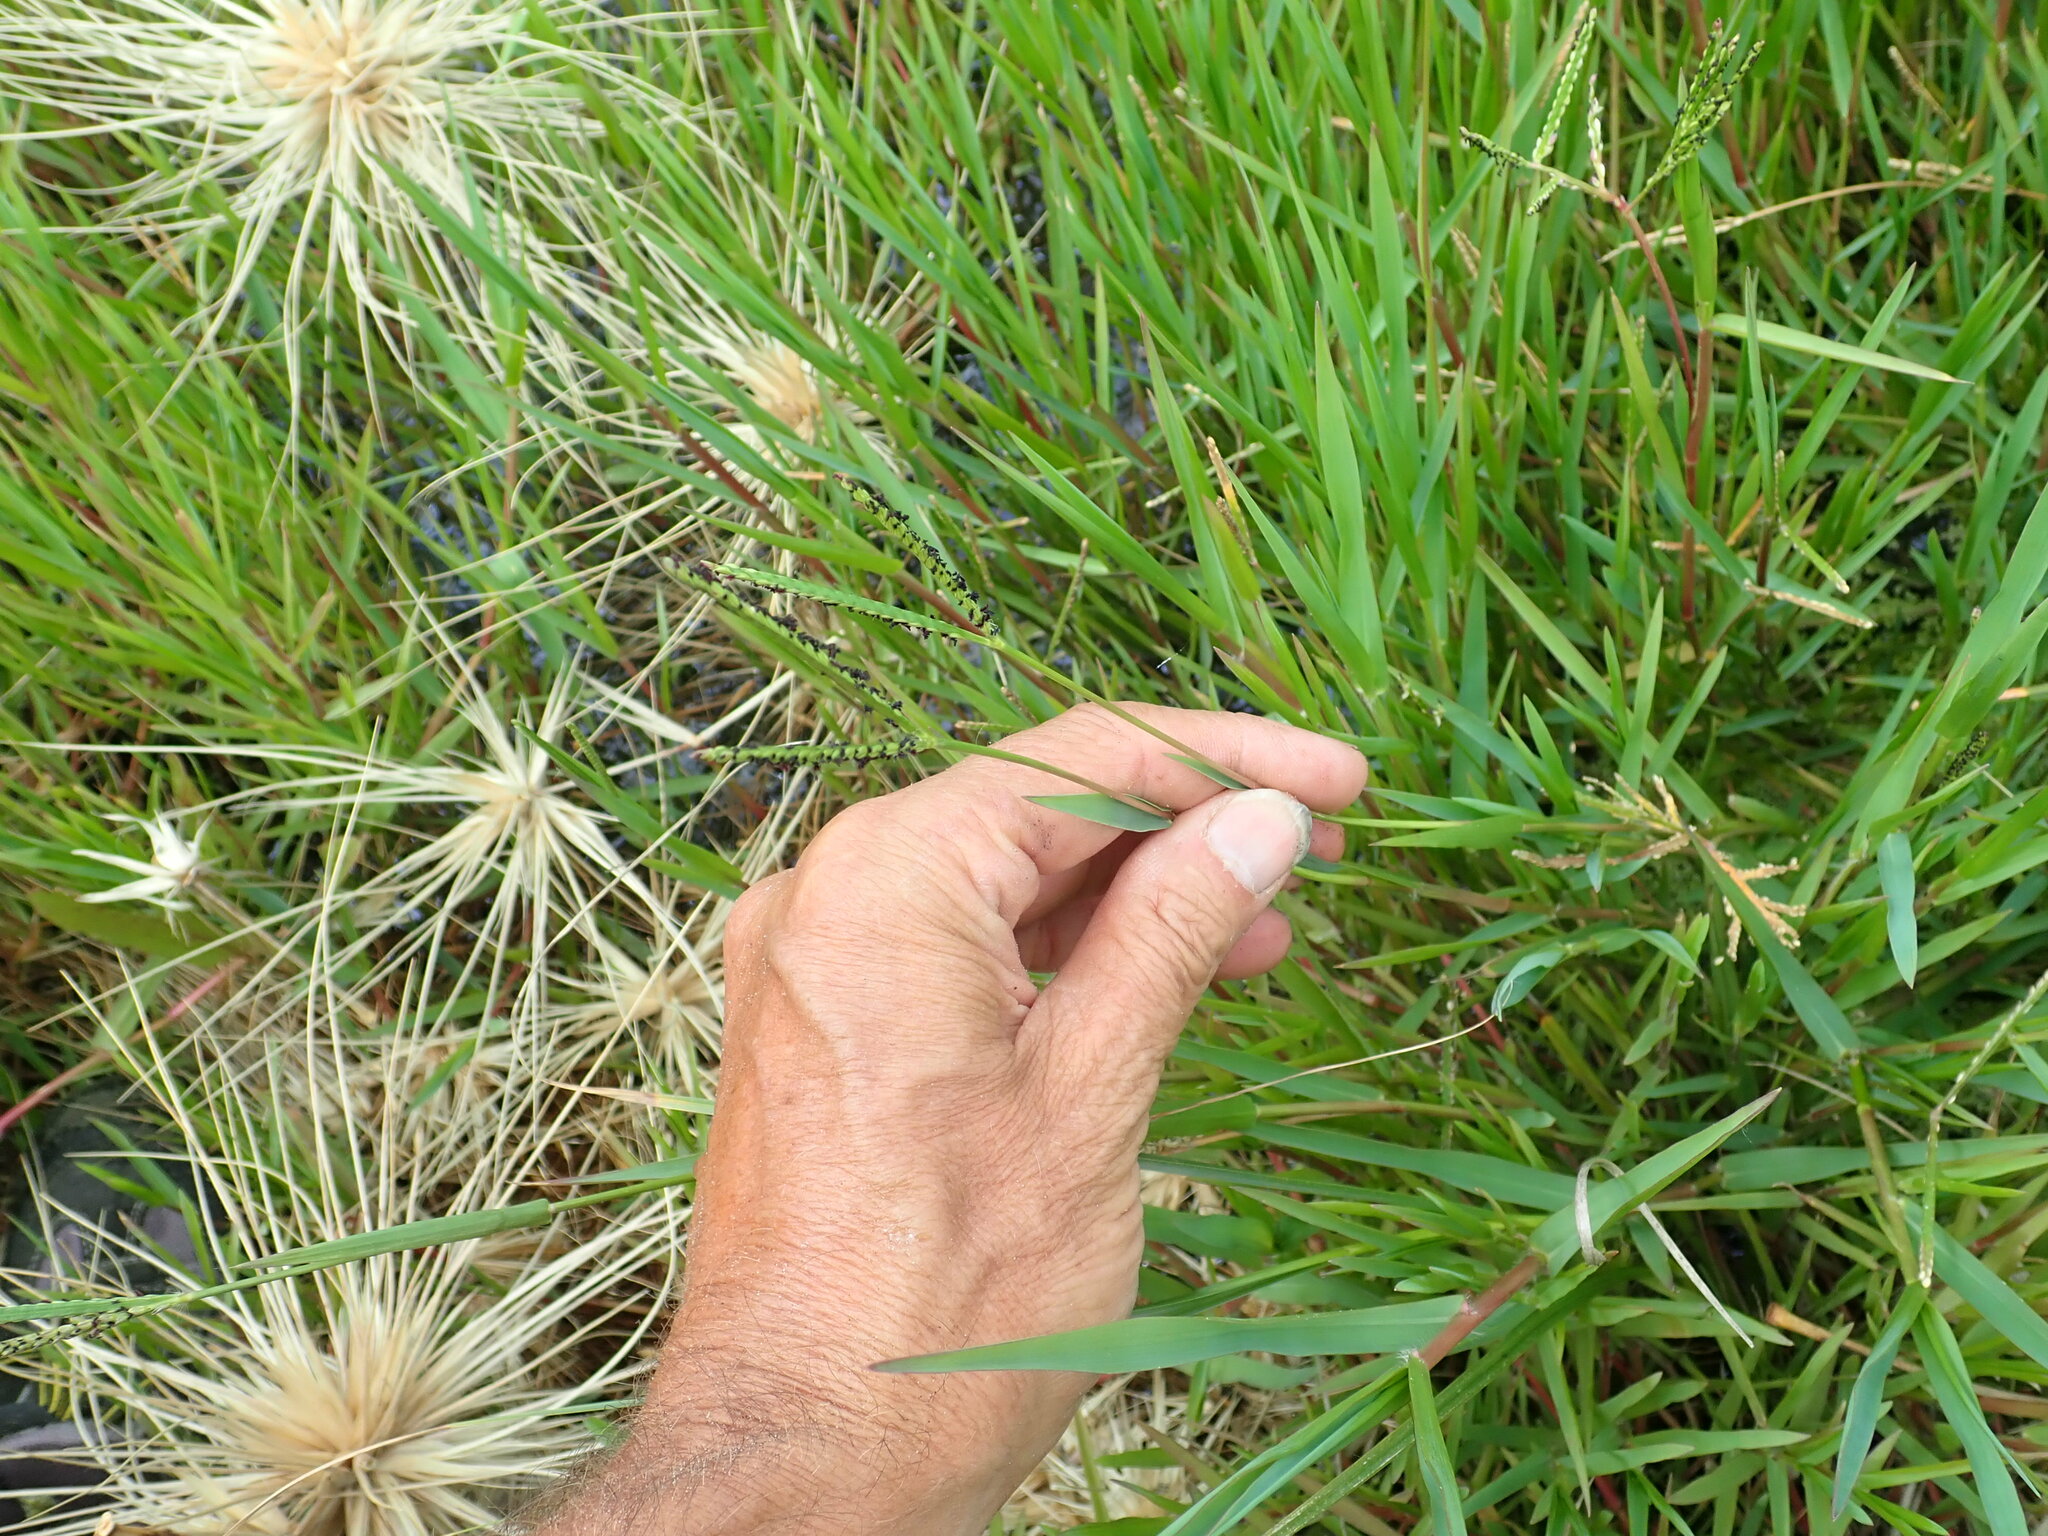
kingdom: Plantae
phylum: Tracheophyta
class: Liliopsida
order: Poales
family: Poaceae
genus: Paspalum
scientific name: Paspalum distichum
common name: Knotgrass
